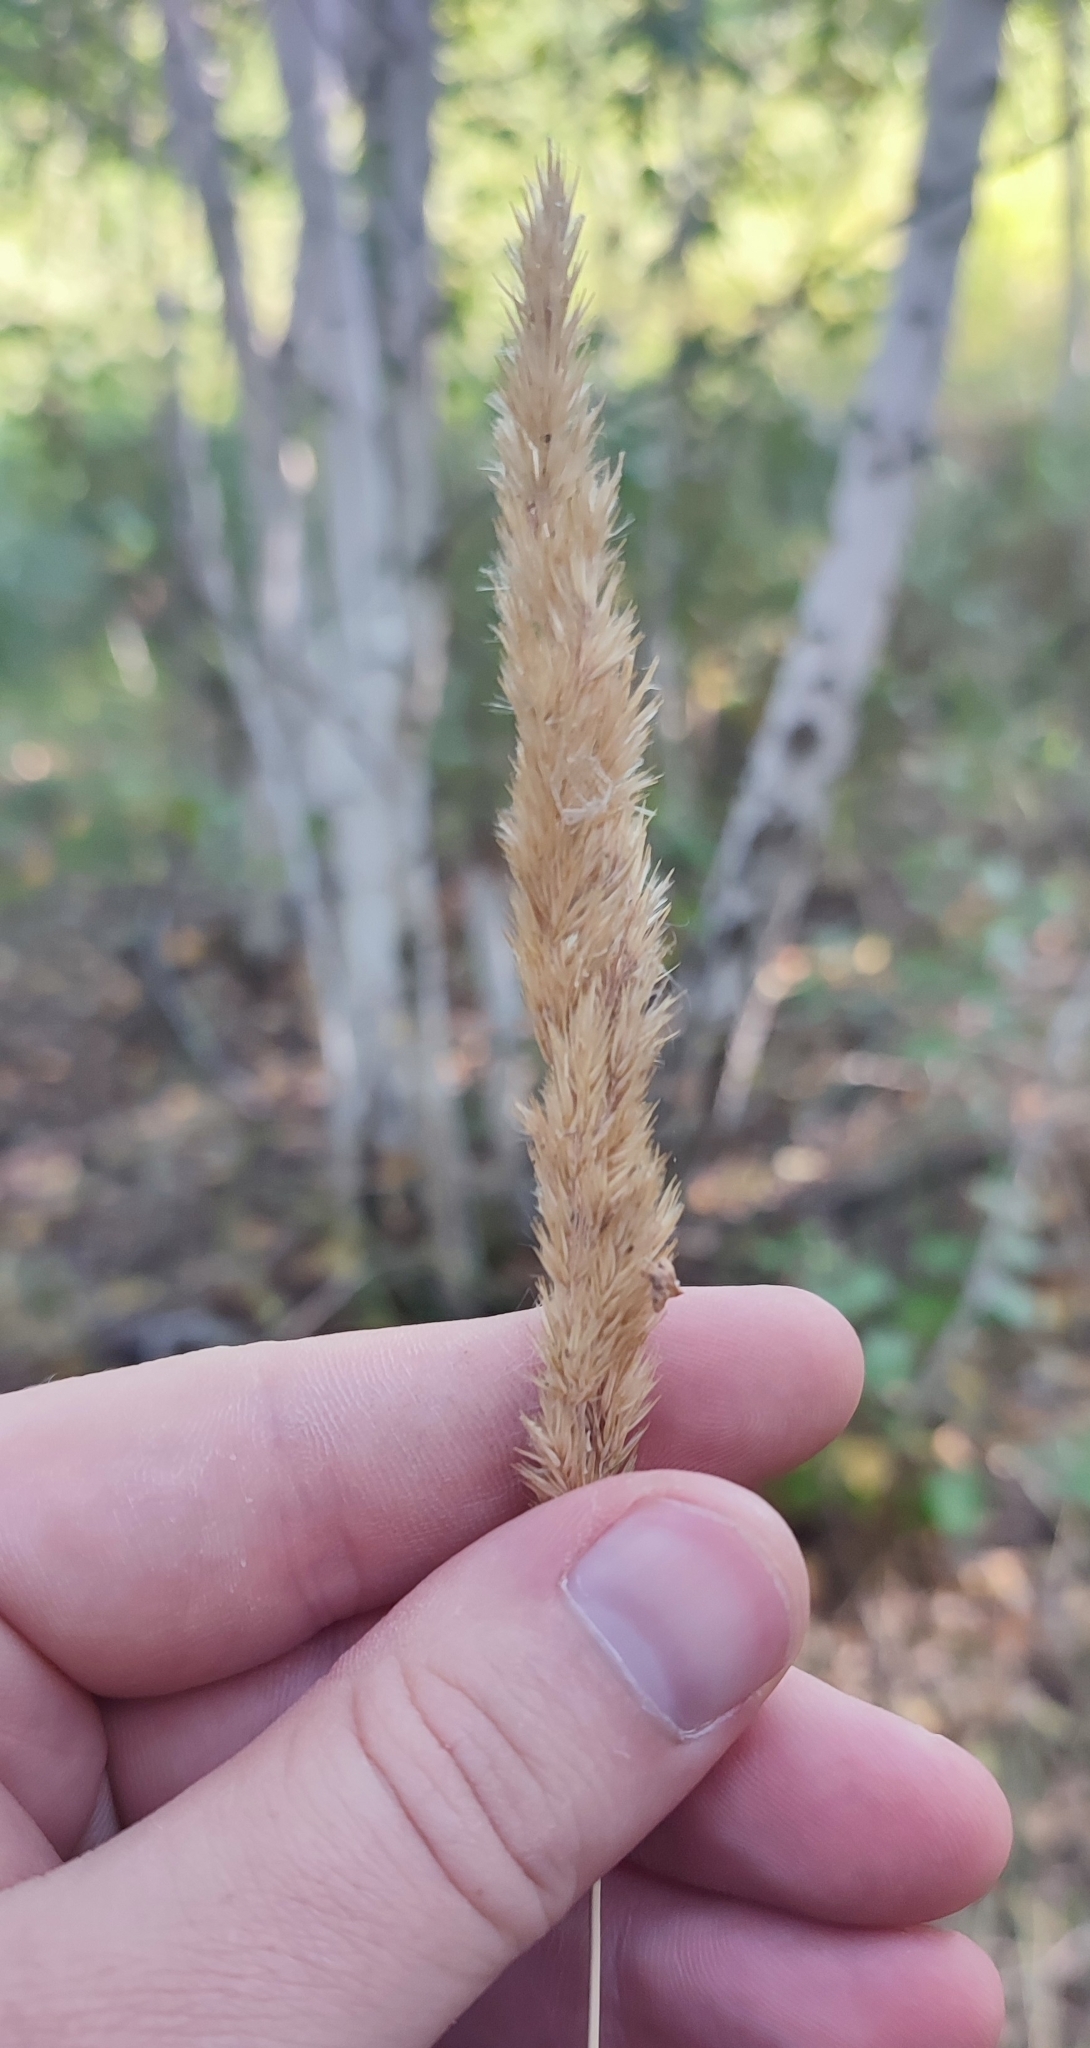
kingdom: Plantae
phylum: Tracheophyta
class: Liliopsida
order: Poales
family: Poaceae
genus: Calamagrostis
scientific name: Calamagrostis epigejos
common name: Wood small-reed
